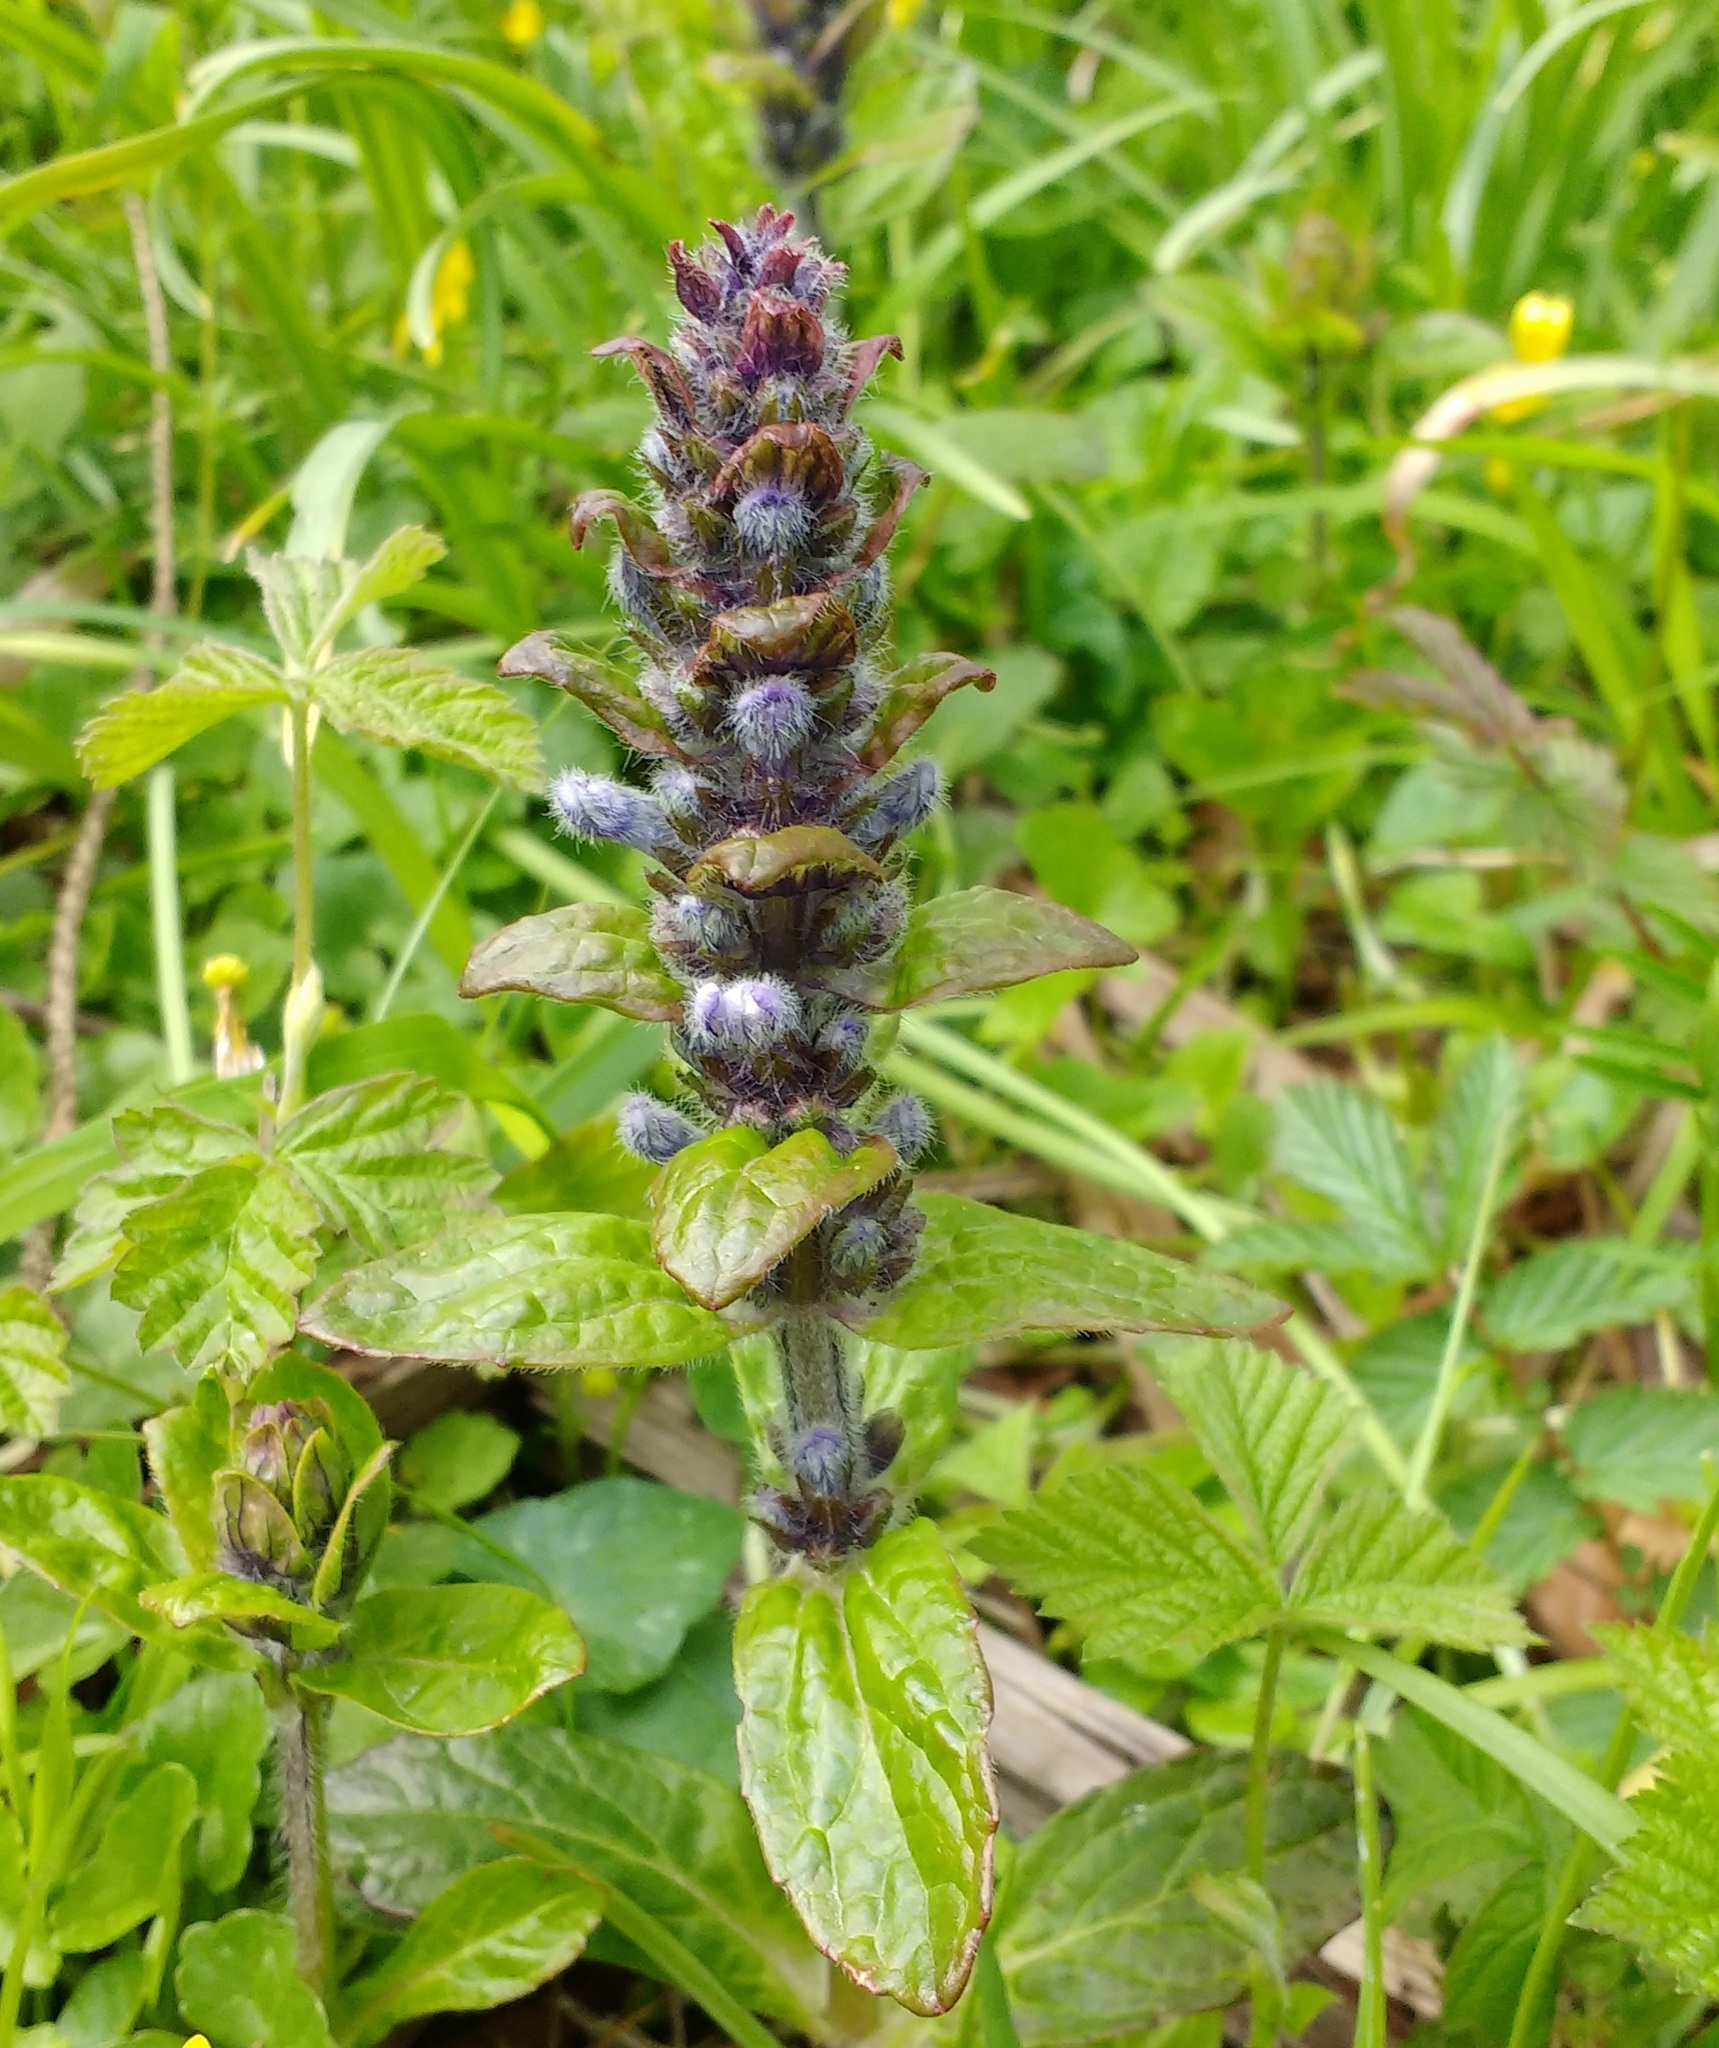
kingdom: Plantae
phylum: Tracheophyta
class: Magnoliopsida
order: Lamiales
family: Lamiaceae
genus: Ajuga
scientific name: Ajuga reptans
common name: Bugle
